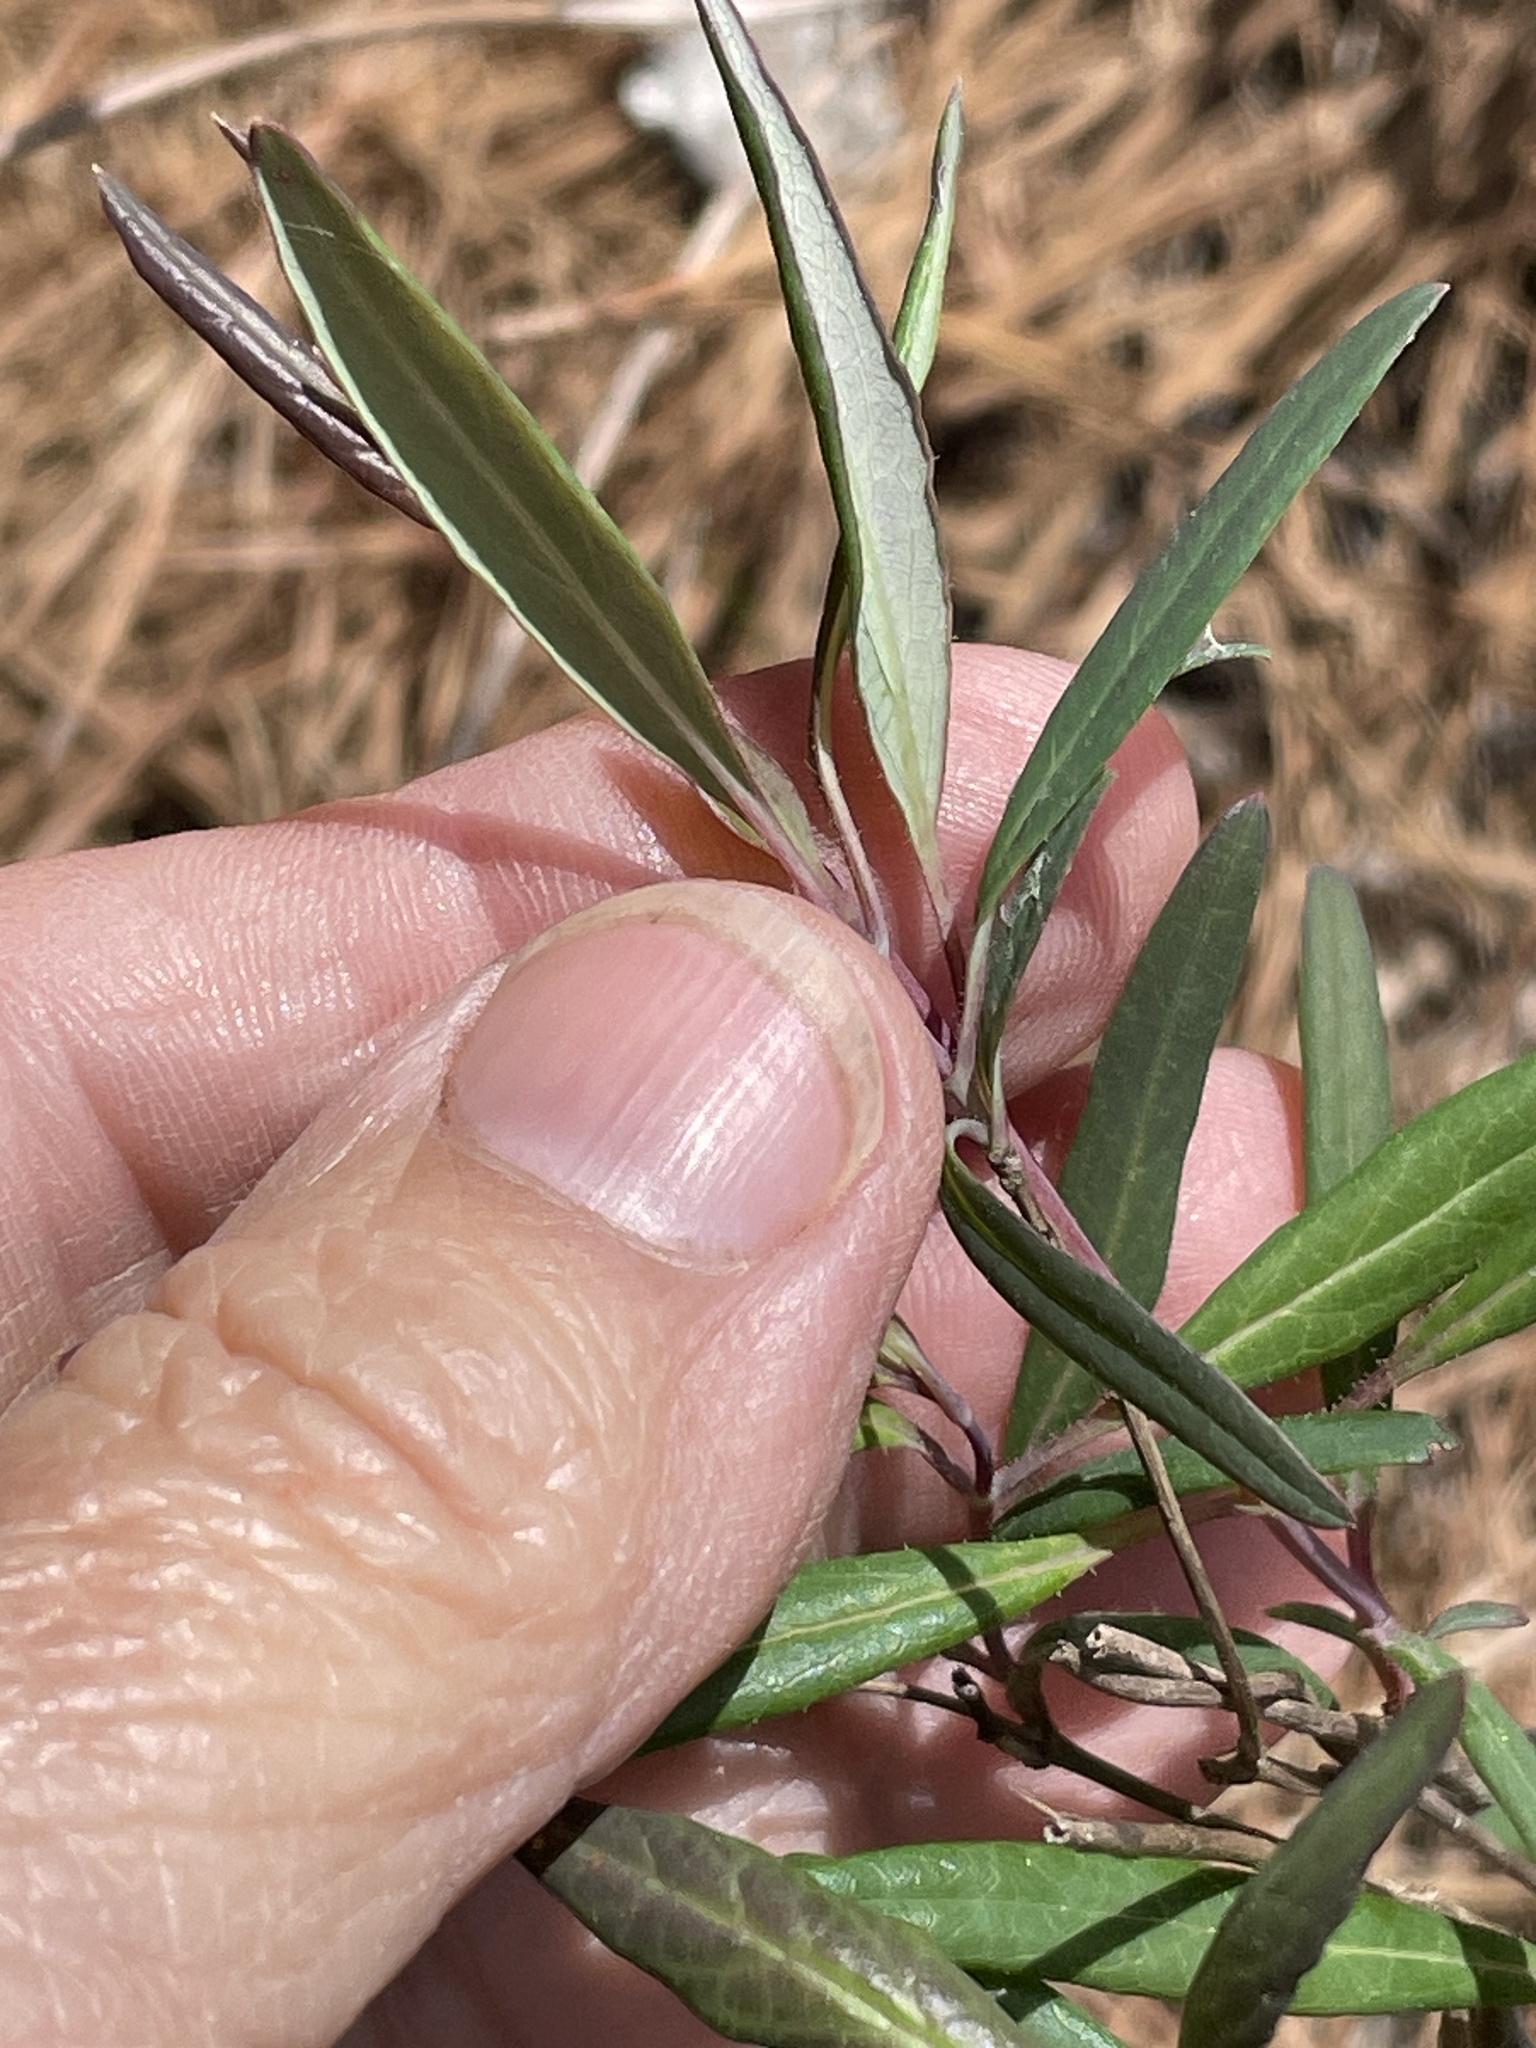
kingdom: Plantae
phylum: Tracheophyta
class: Magnoliopsida
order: Dipsacales
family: Caprifoliaceae
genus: Lonicera
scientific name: Lonicera sempervirens
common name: Coral honeysuckle
